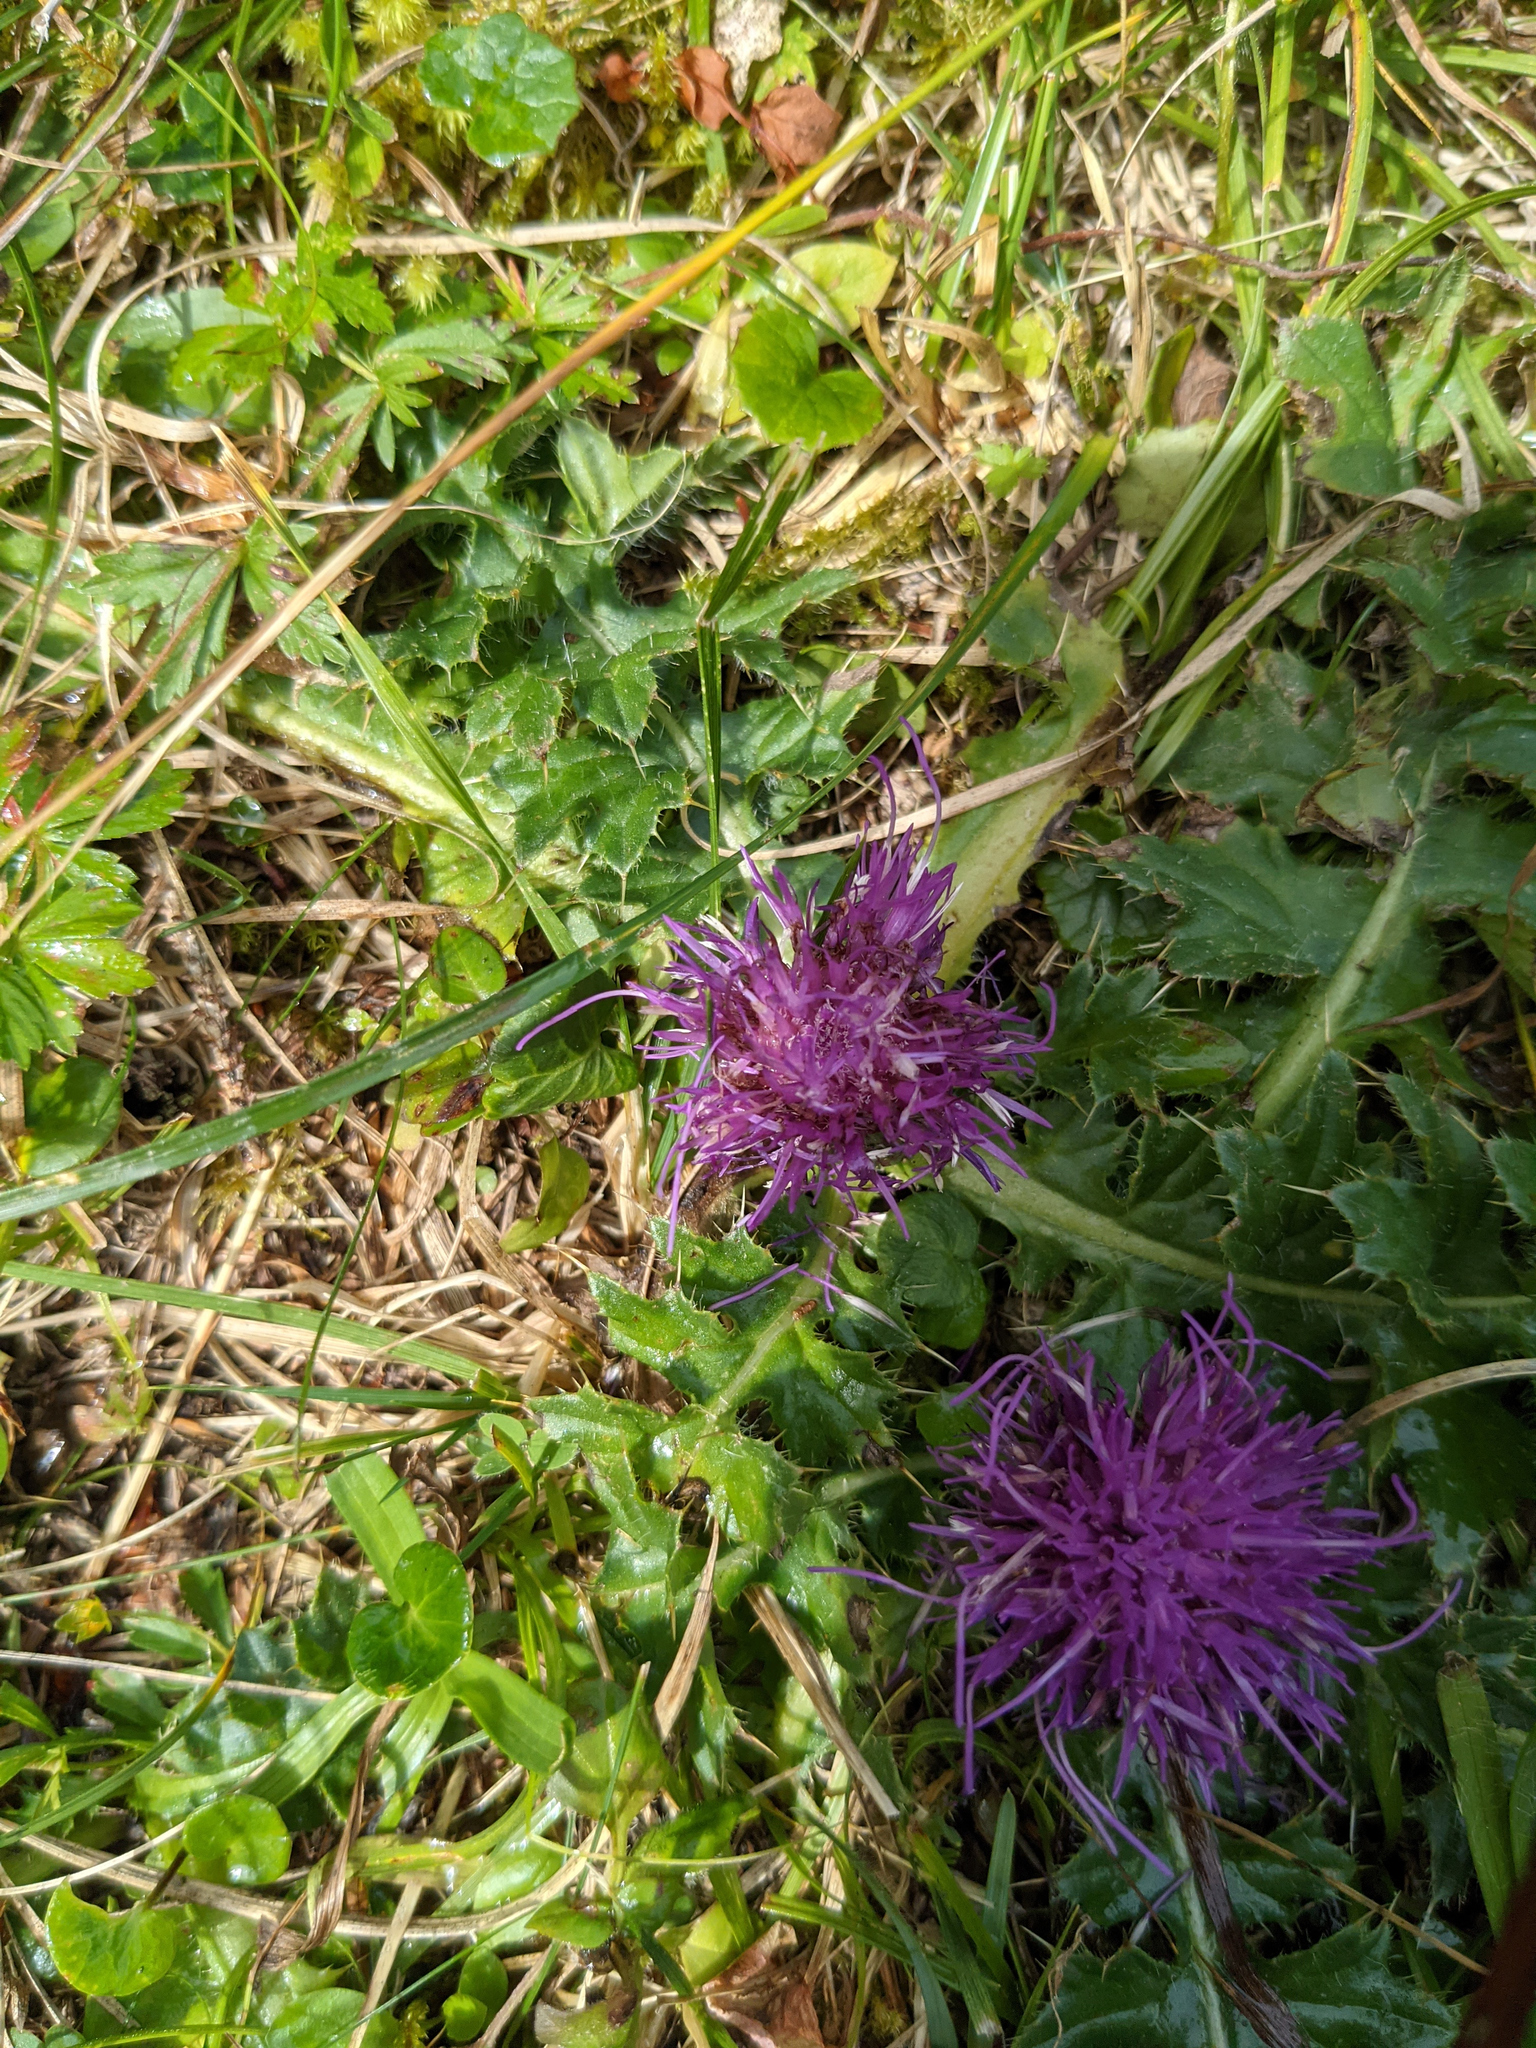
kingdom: Plantae
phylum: Tracheophyta
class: Magnoliopsida
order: Asterales
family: Asteraceae
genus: Cirsium
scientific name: Cirsium acaulon
